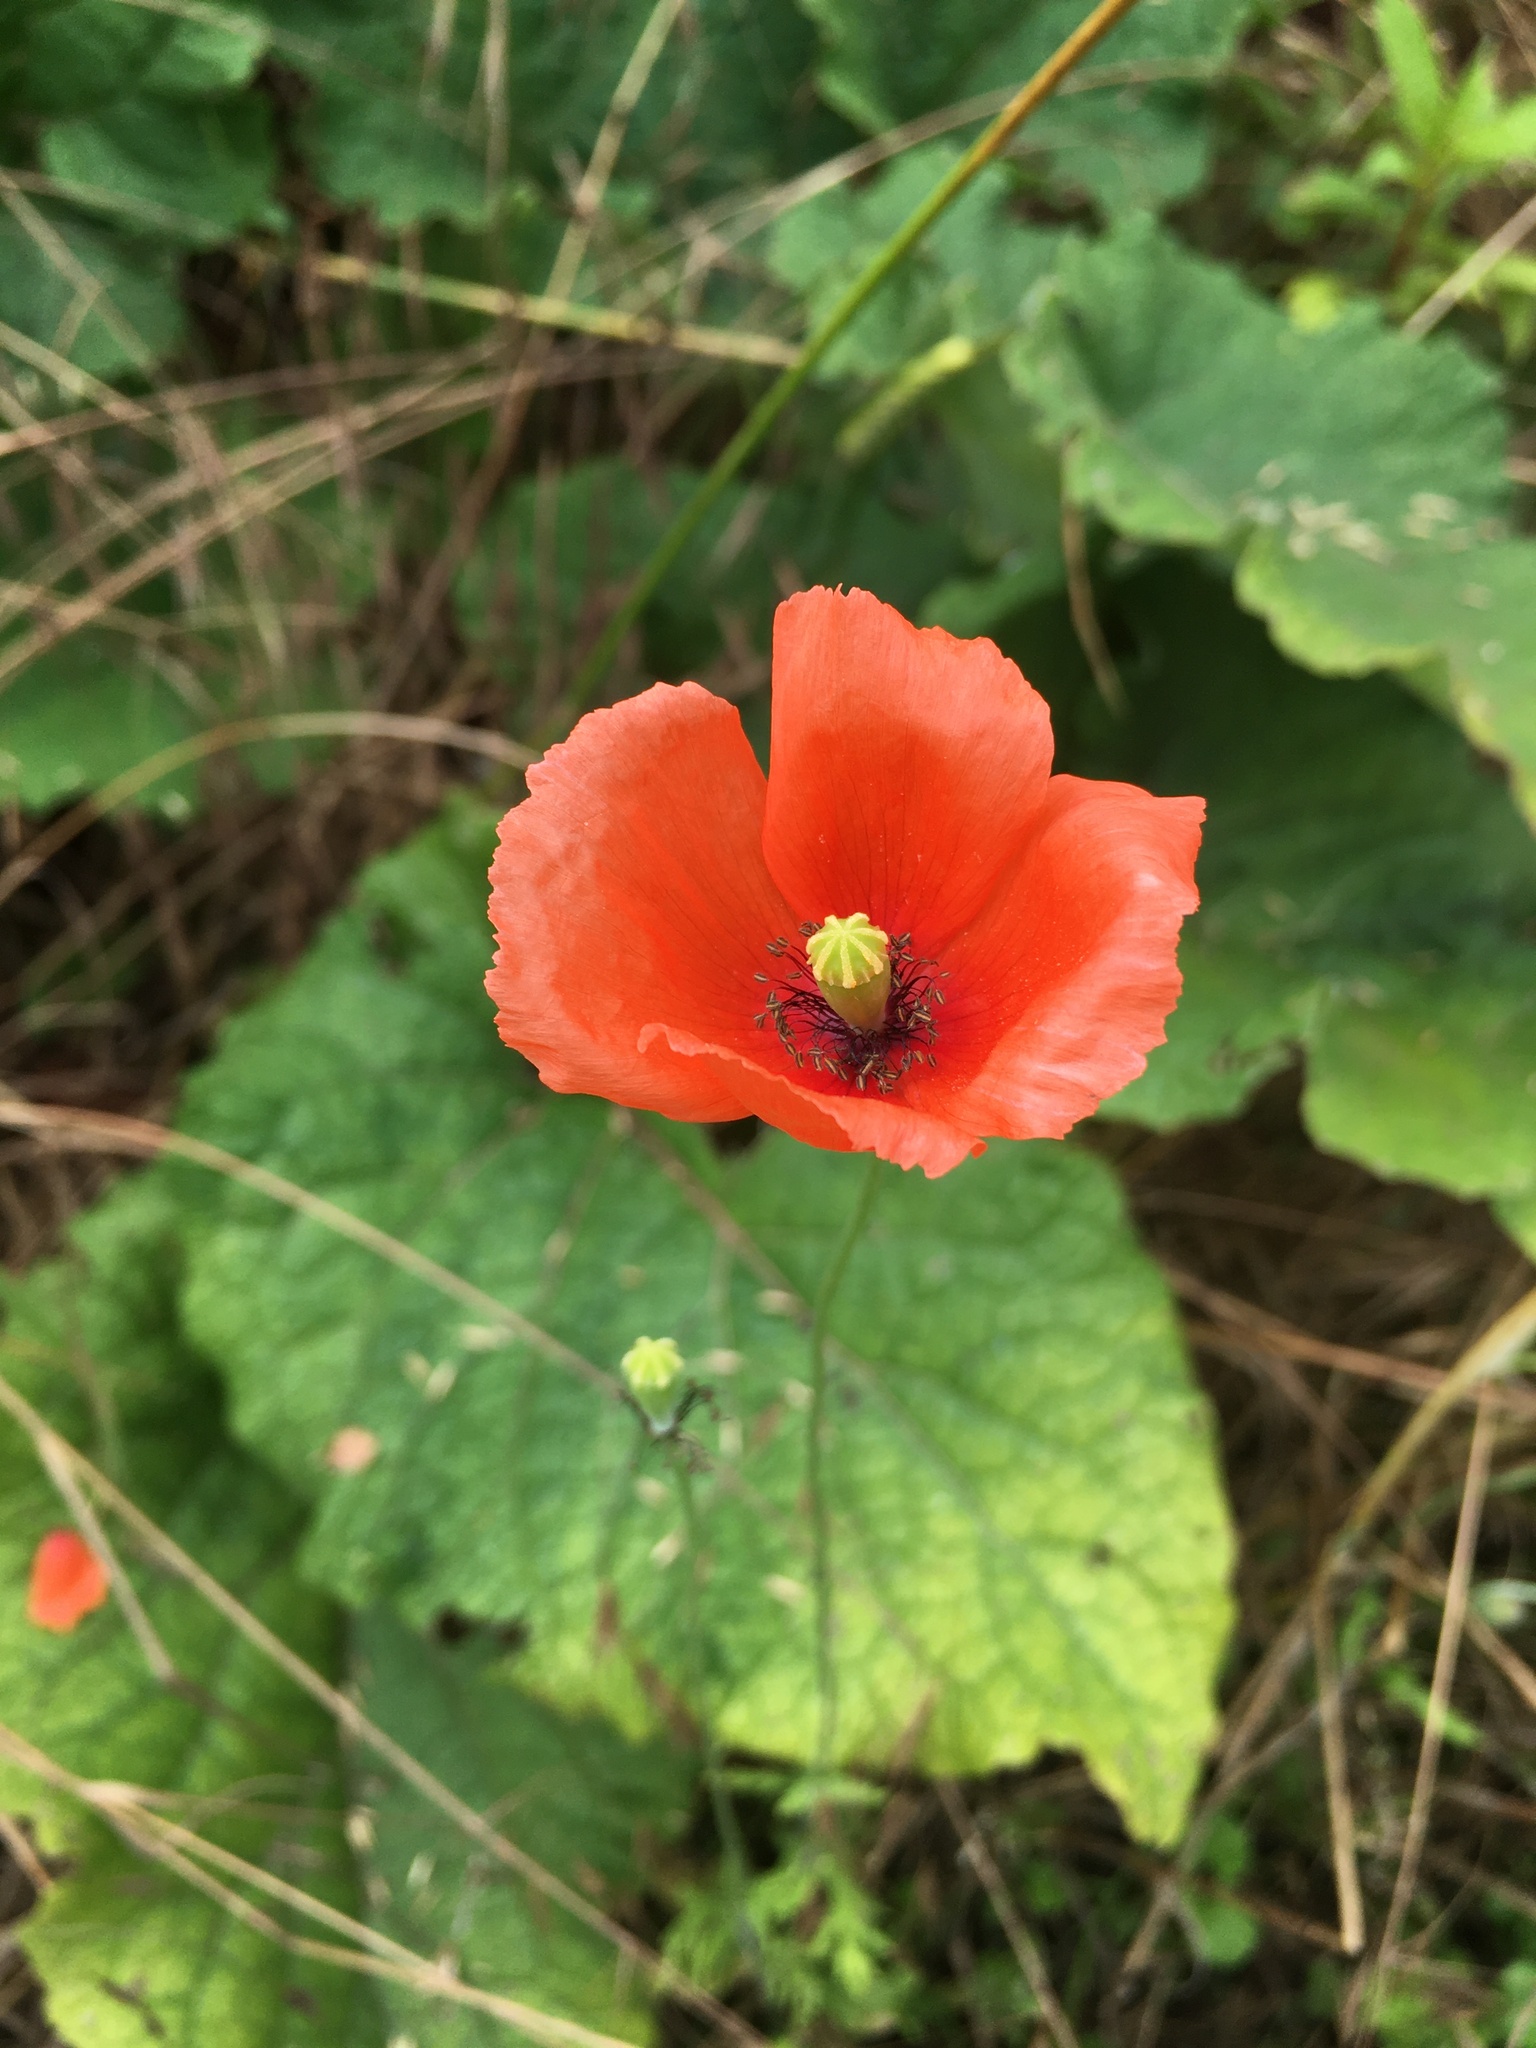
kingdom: Plantae
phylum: Tracheophyta
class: Magnoliopsida
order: Ranunculales
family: Papaveraceae
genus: Papaver
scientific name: Papaver dubium
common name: Long-headed poppy
